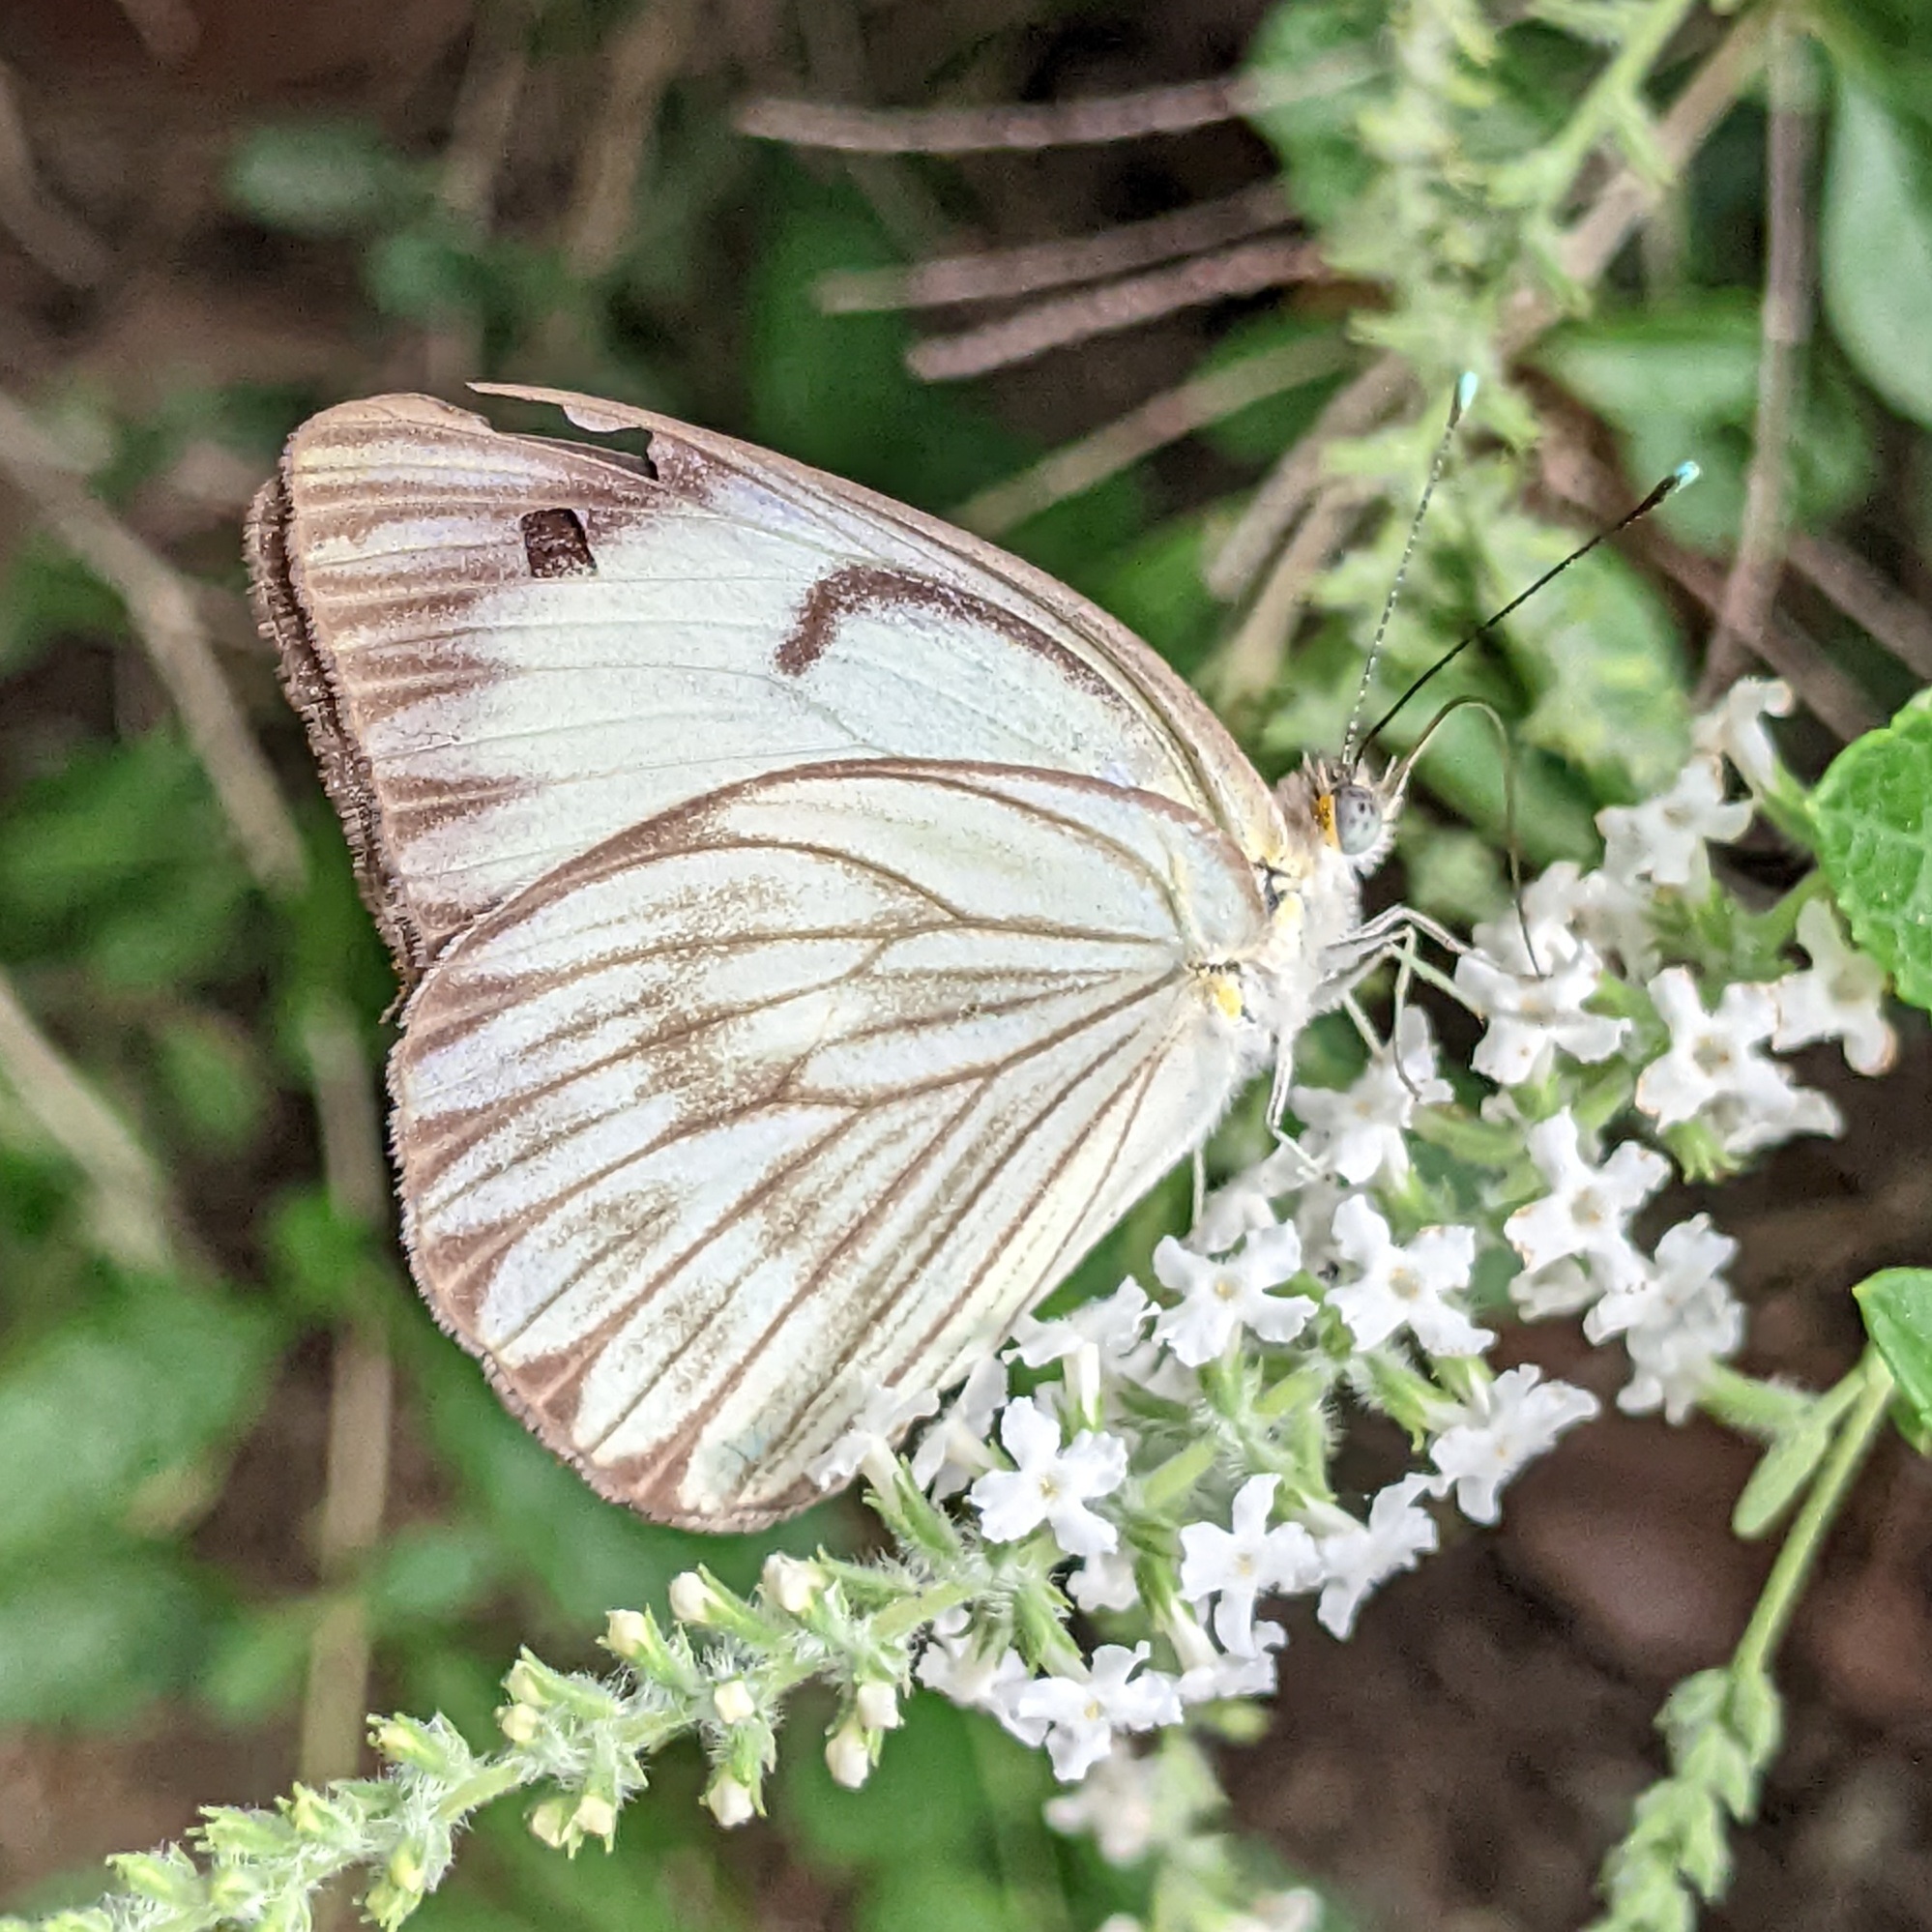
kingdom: Animalia
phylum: Arthropoda
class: Insecta
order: Lepidoptera
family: Pieridae
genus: Ascia
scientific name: Ascia monuste
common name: Great southern white
